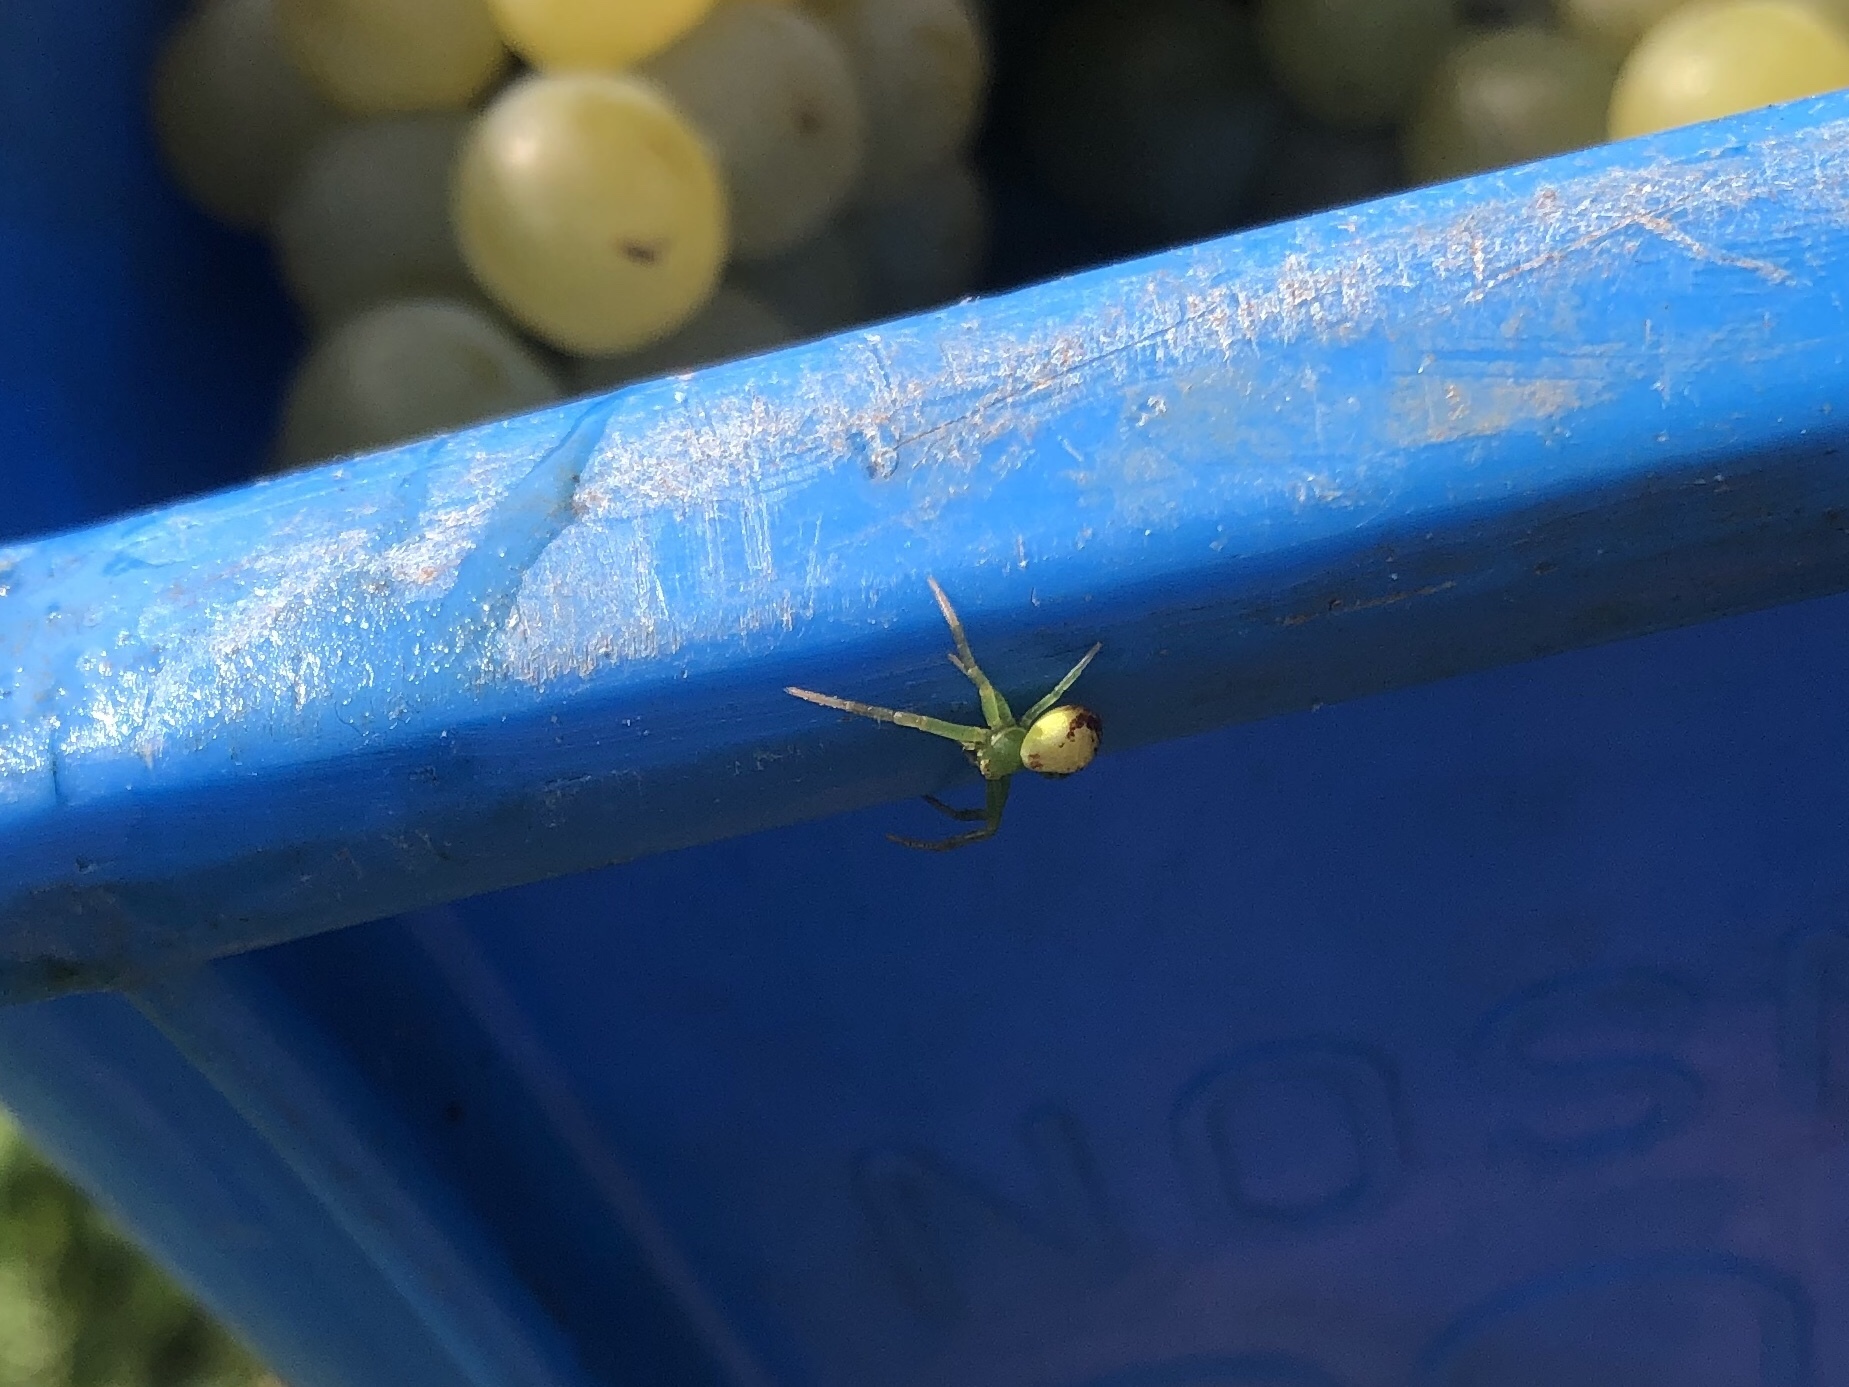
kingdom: Animalia
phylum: Arthropoda
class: Arachnida
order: Araneae
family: Thomisidae
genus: Ebrechtella
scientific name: Ebrechtella tricuspidata
